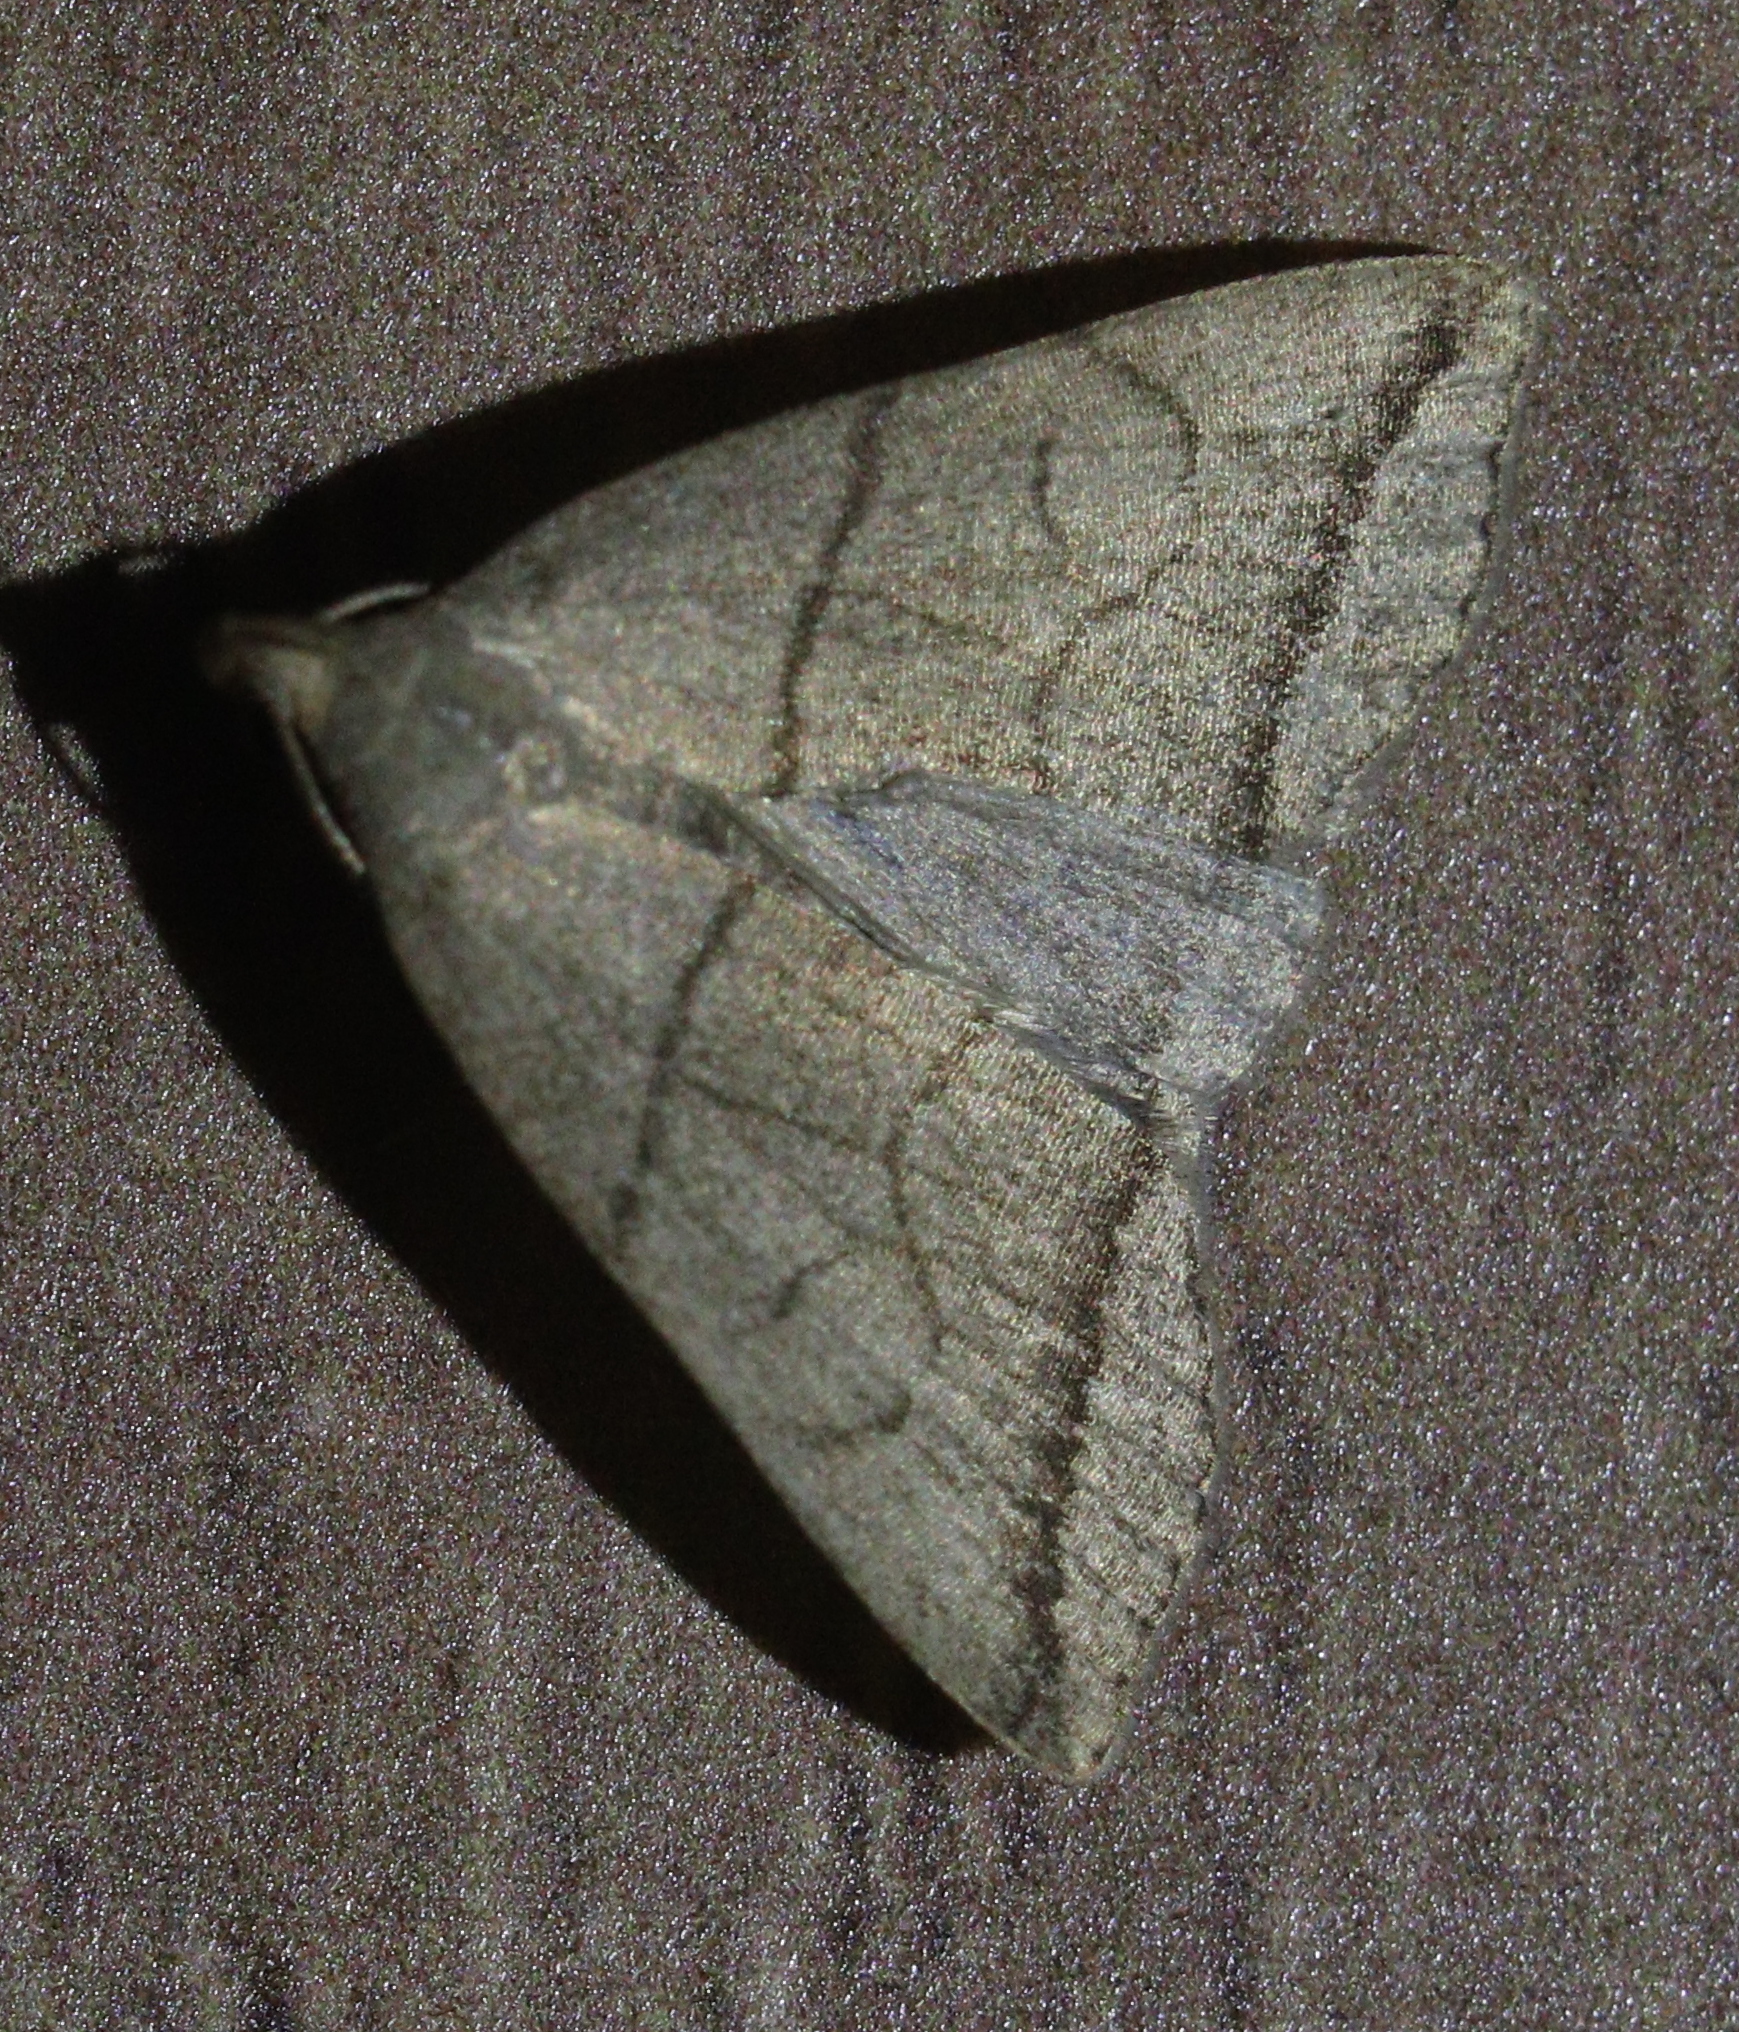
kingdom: Animalia
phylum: Arthropoda
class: Insecta
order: Lepidoptera
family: Erebidae
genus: Herminia
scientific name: Herminia grisealis
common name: Small fan-foot
